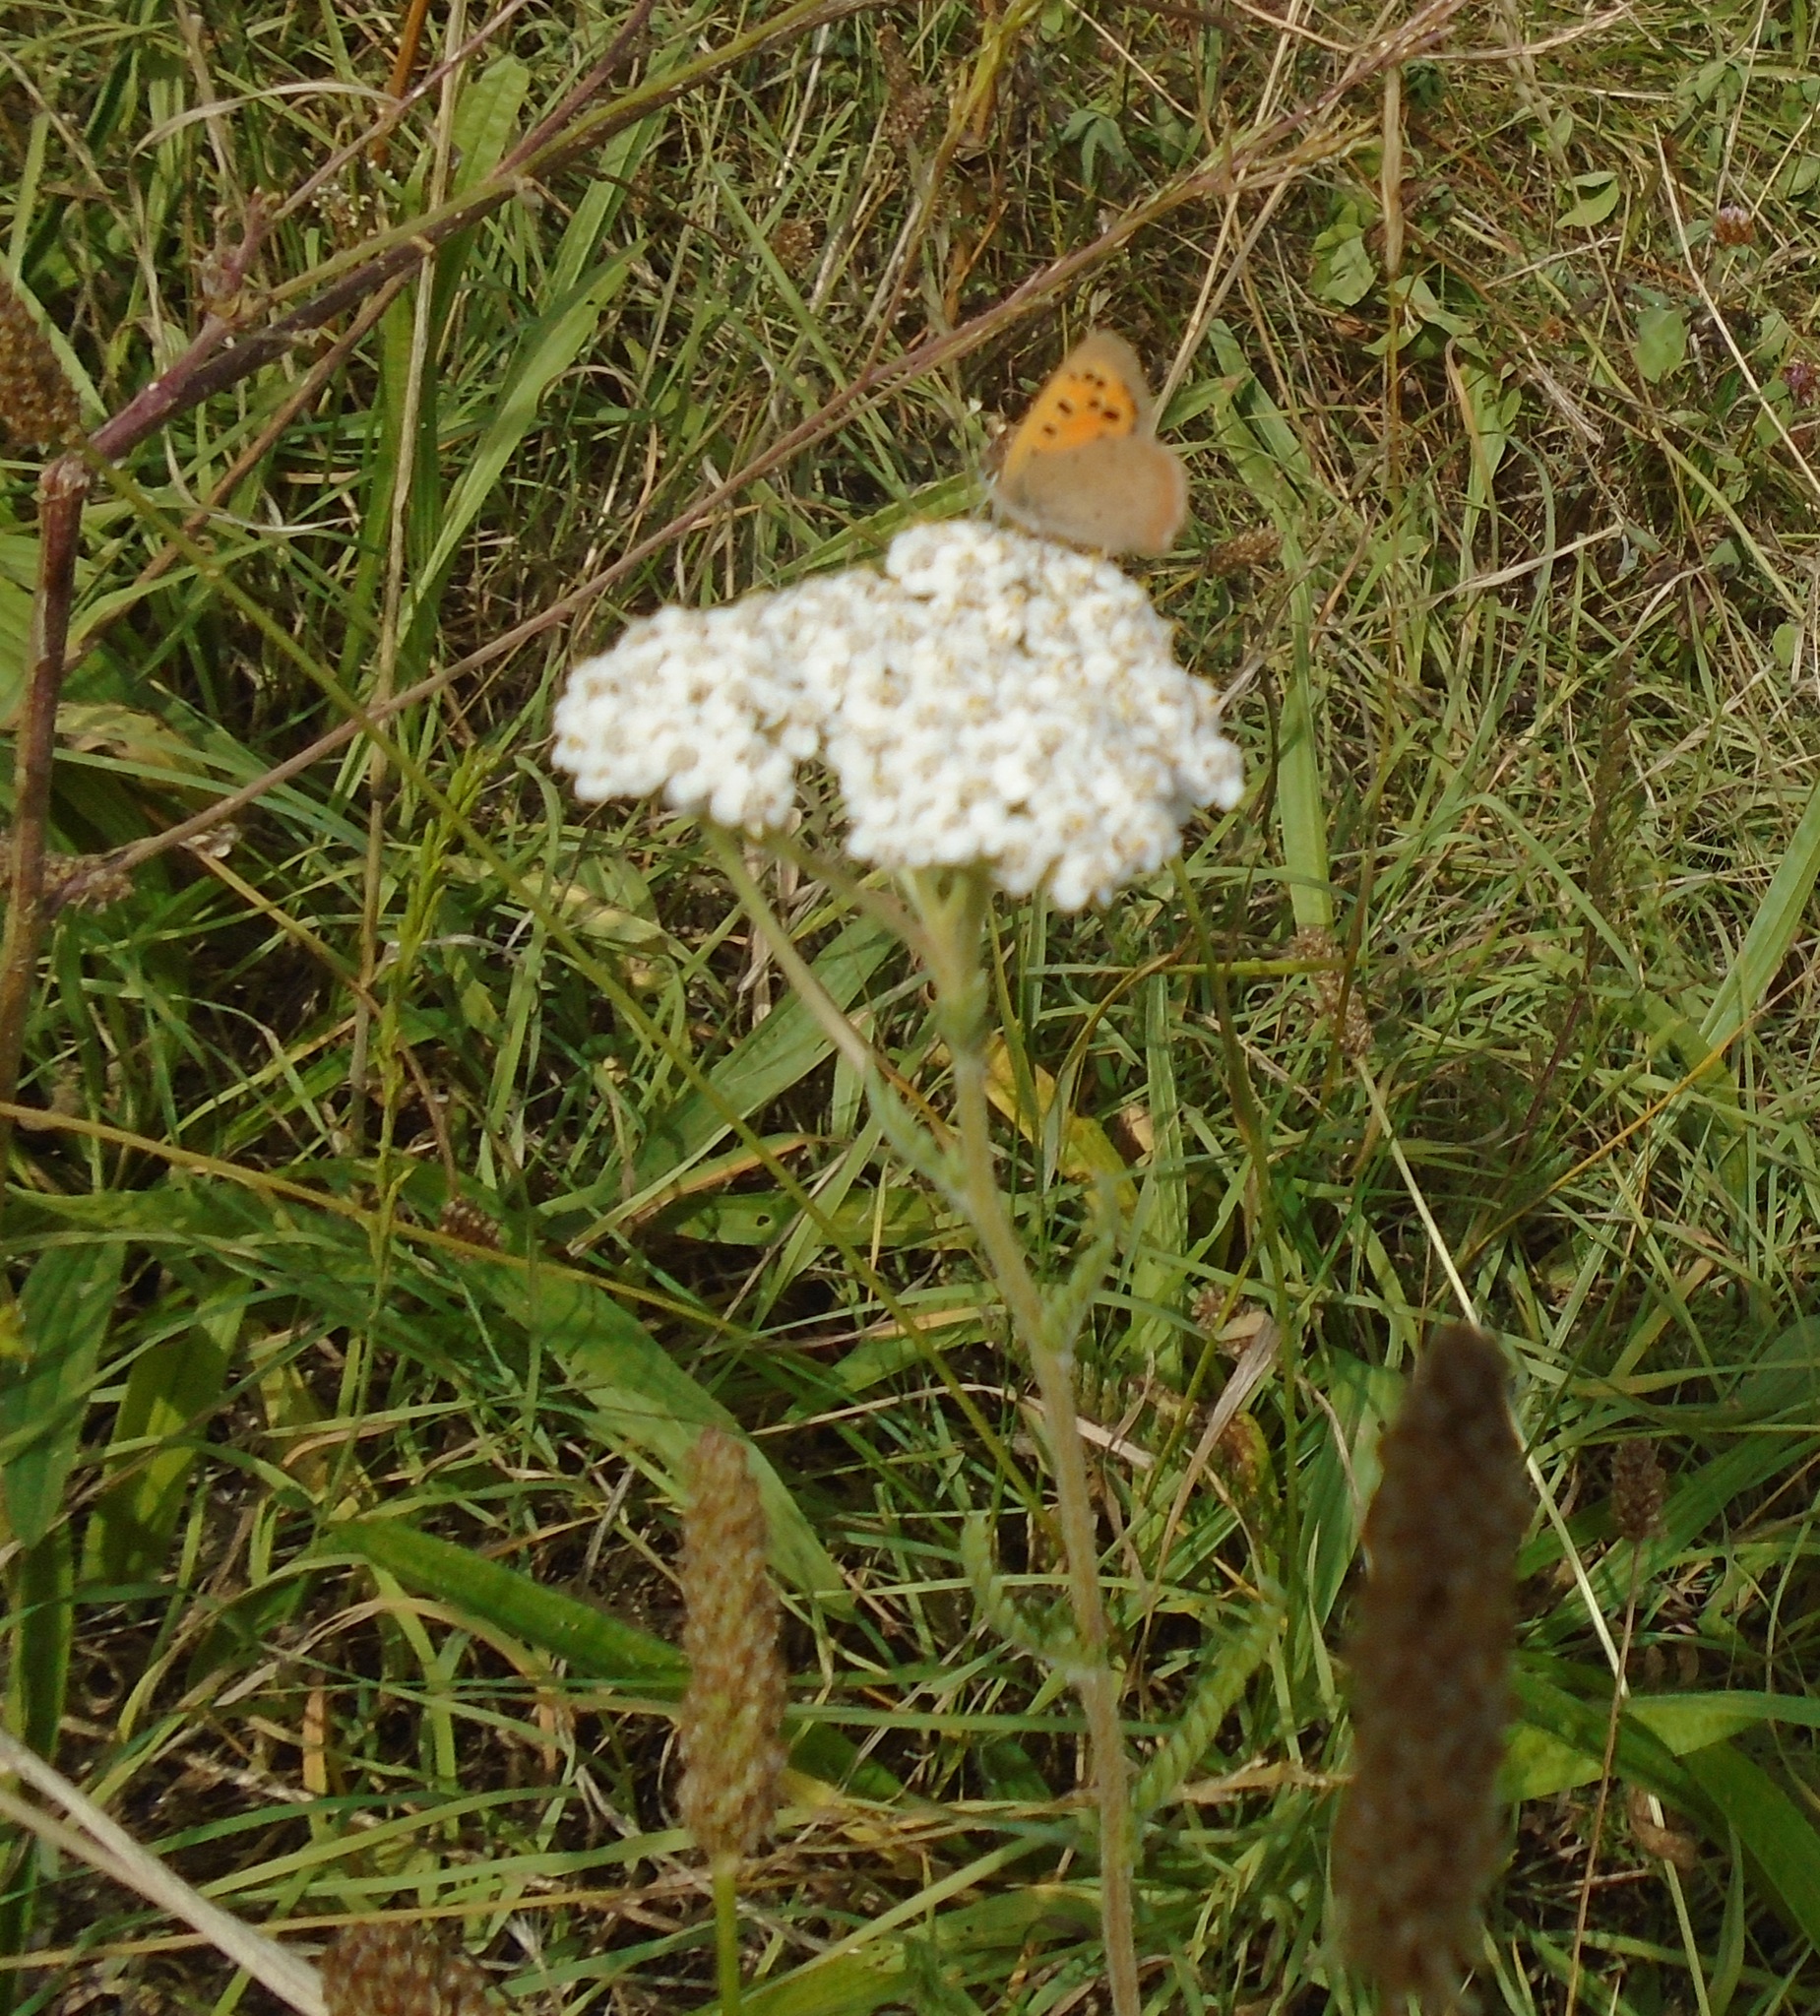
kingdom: Animalia
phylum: Arthropoda
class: Insecta
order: Lepidoptera
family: Lycaenidae
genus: Lycaena
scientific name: Lycaena phlaeas
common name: Small copper
